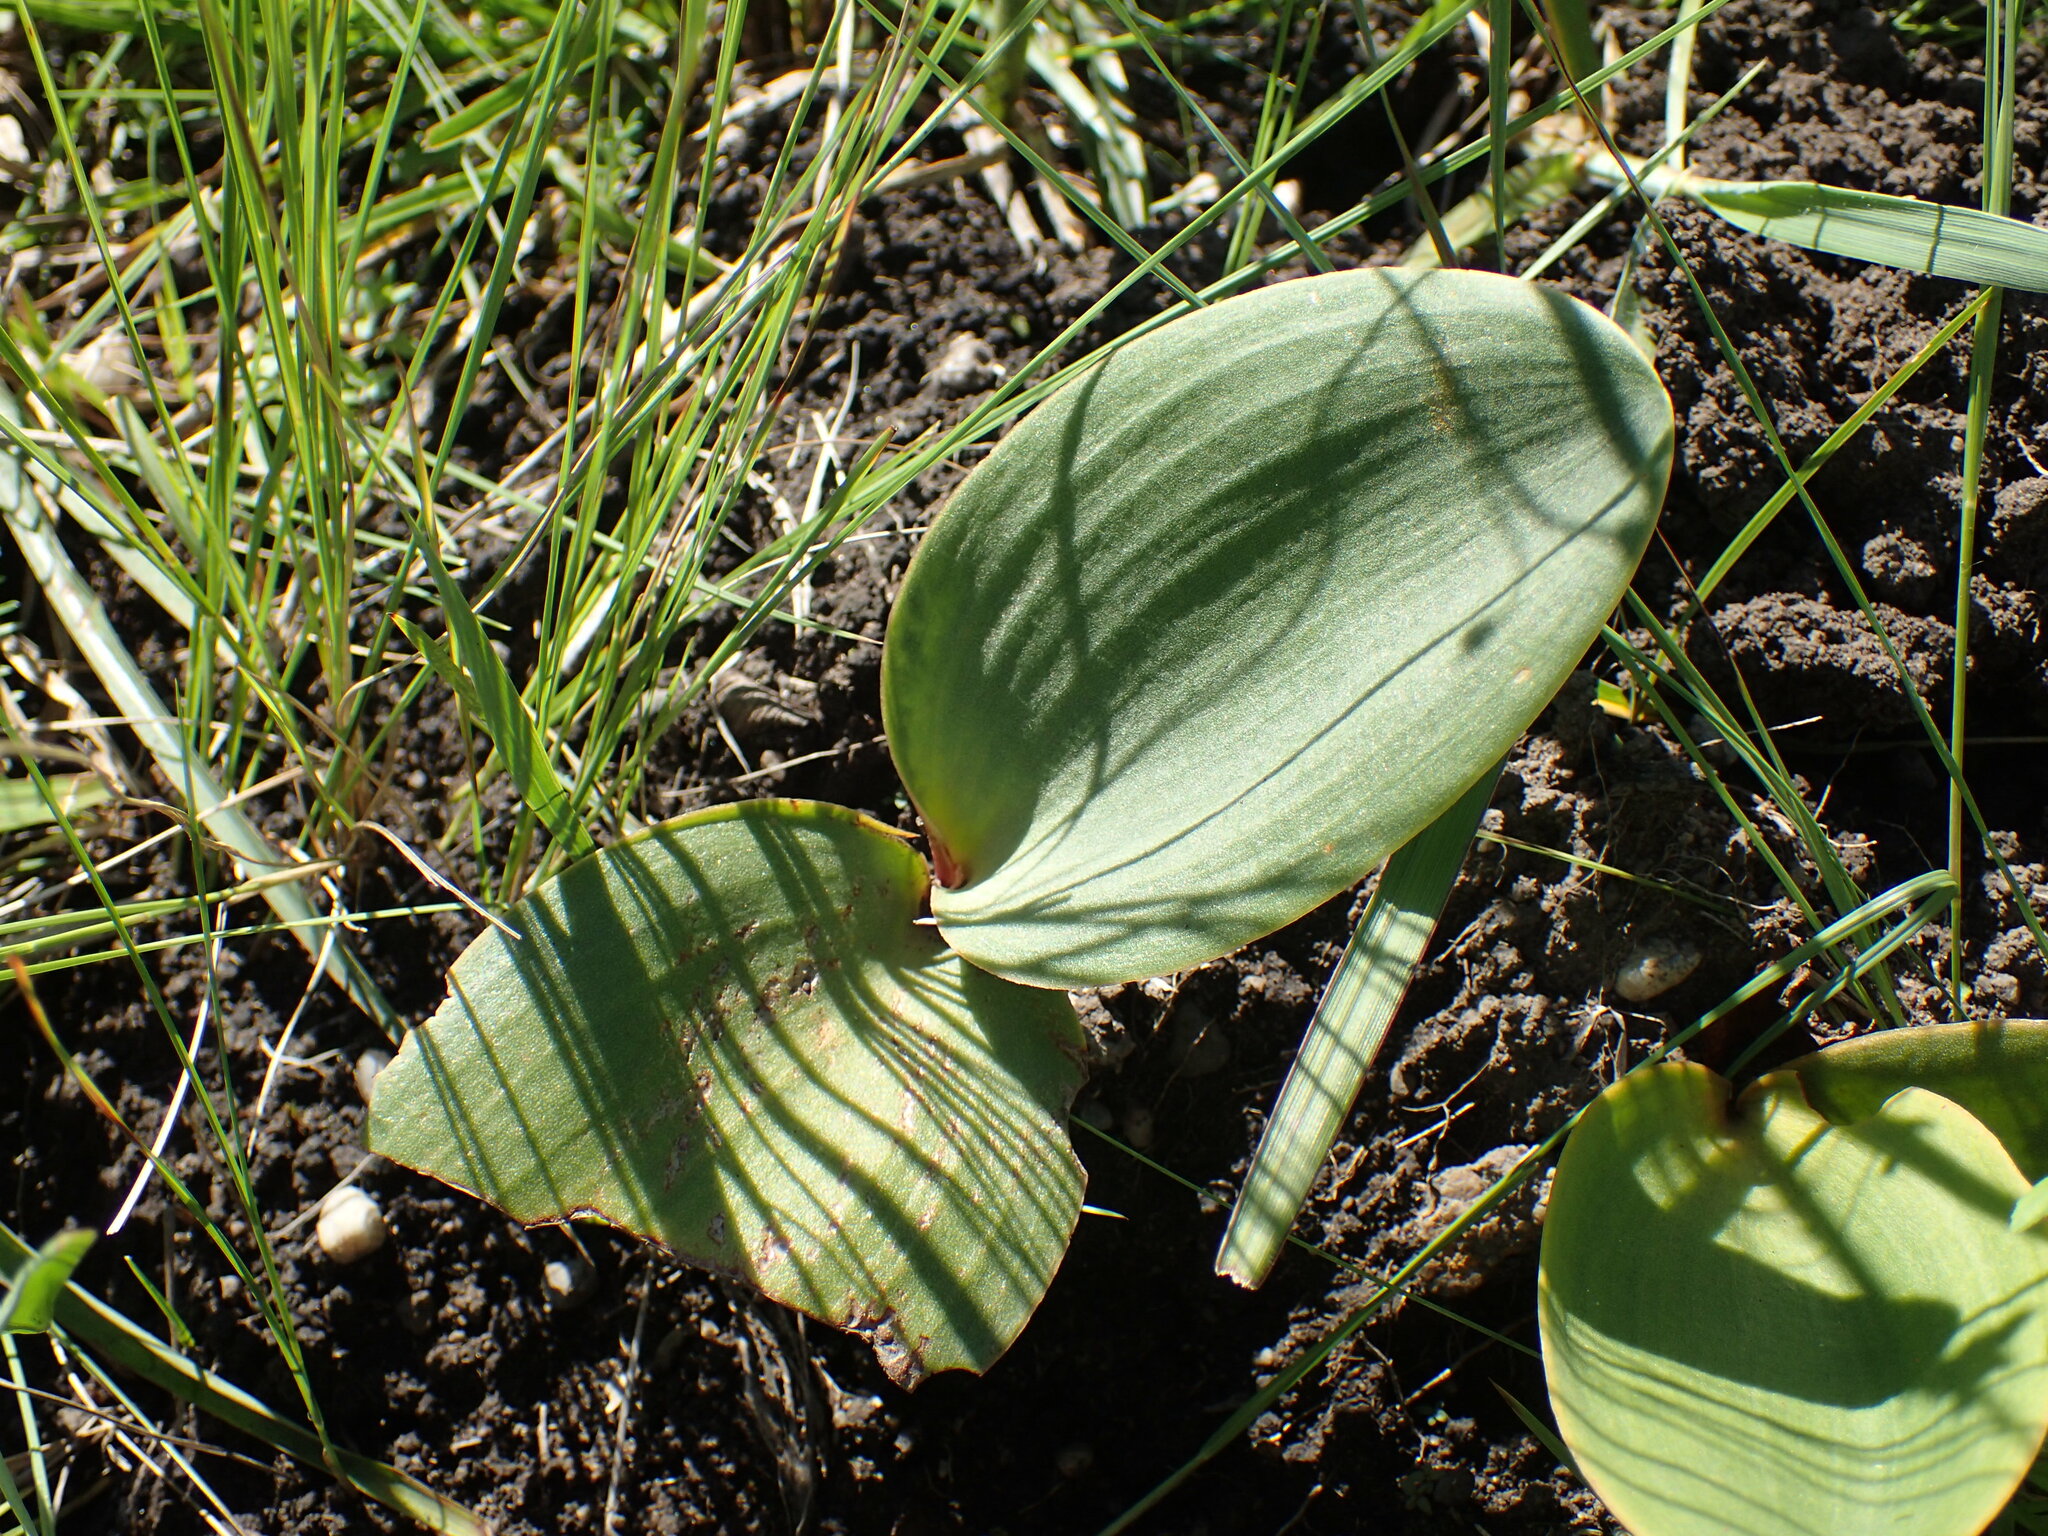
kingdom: Plantae
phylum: Tracheophyta
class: Liliopsida
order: Asparagales
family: Asparagaceae
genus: Eriospermum
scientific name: Eriospermum mackenii
